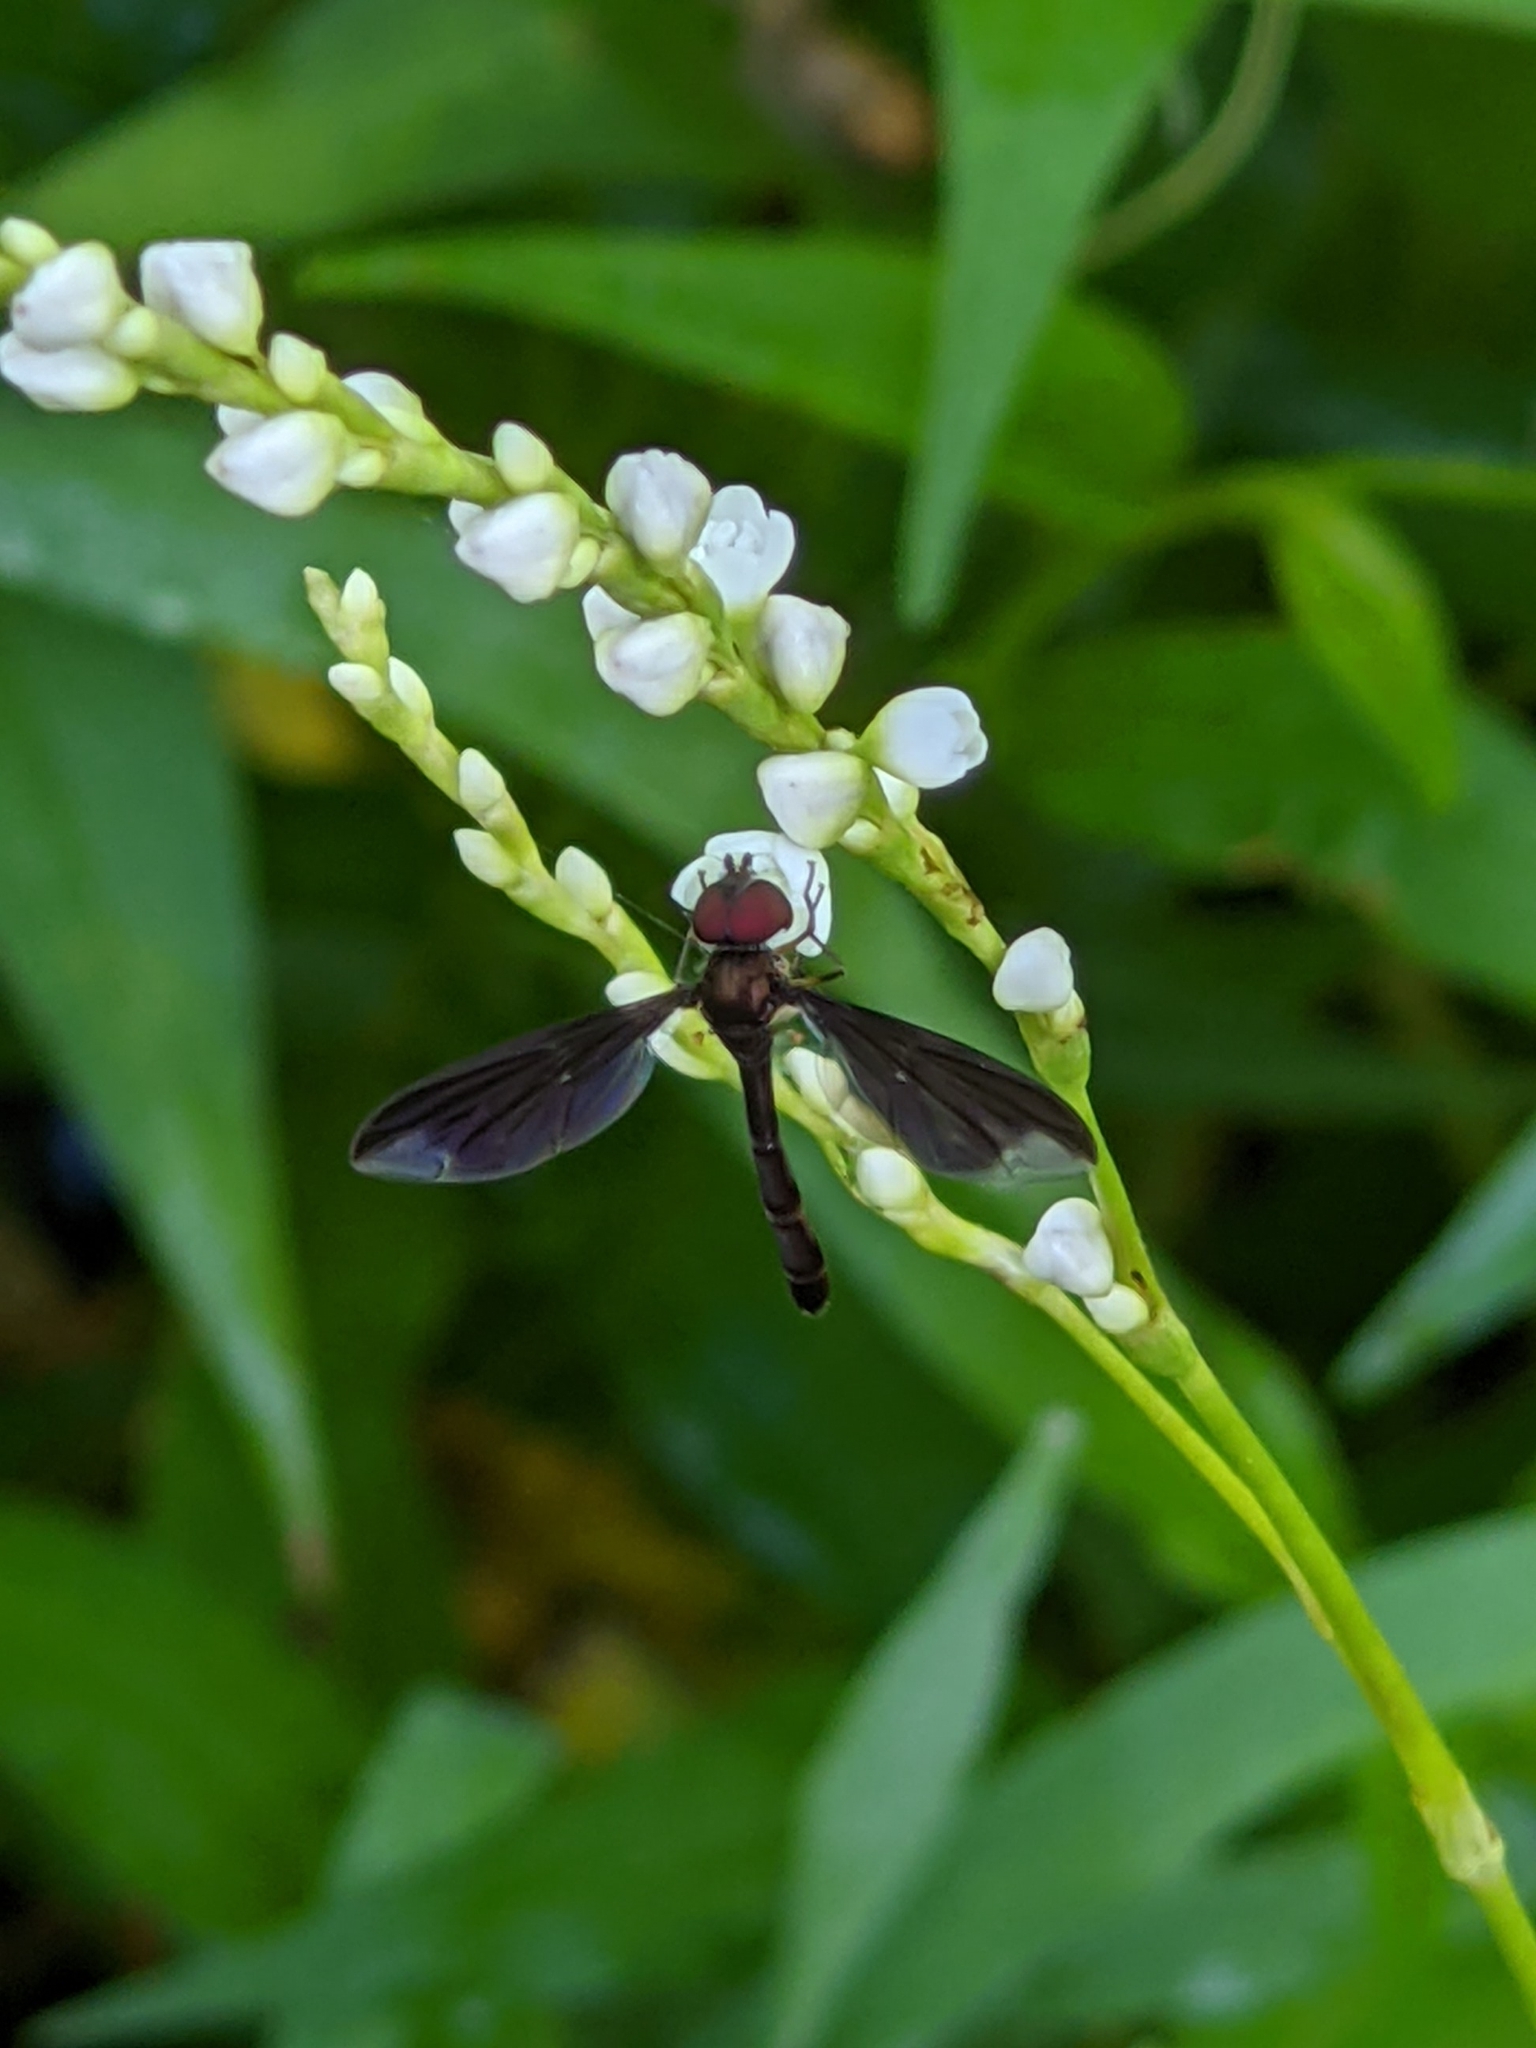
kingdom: Animalia
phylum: Arthropoda
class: Insecta
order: Diptera
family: Syrphidae
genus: Ocyptamus
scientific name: Ocyptamus fuscipennis
